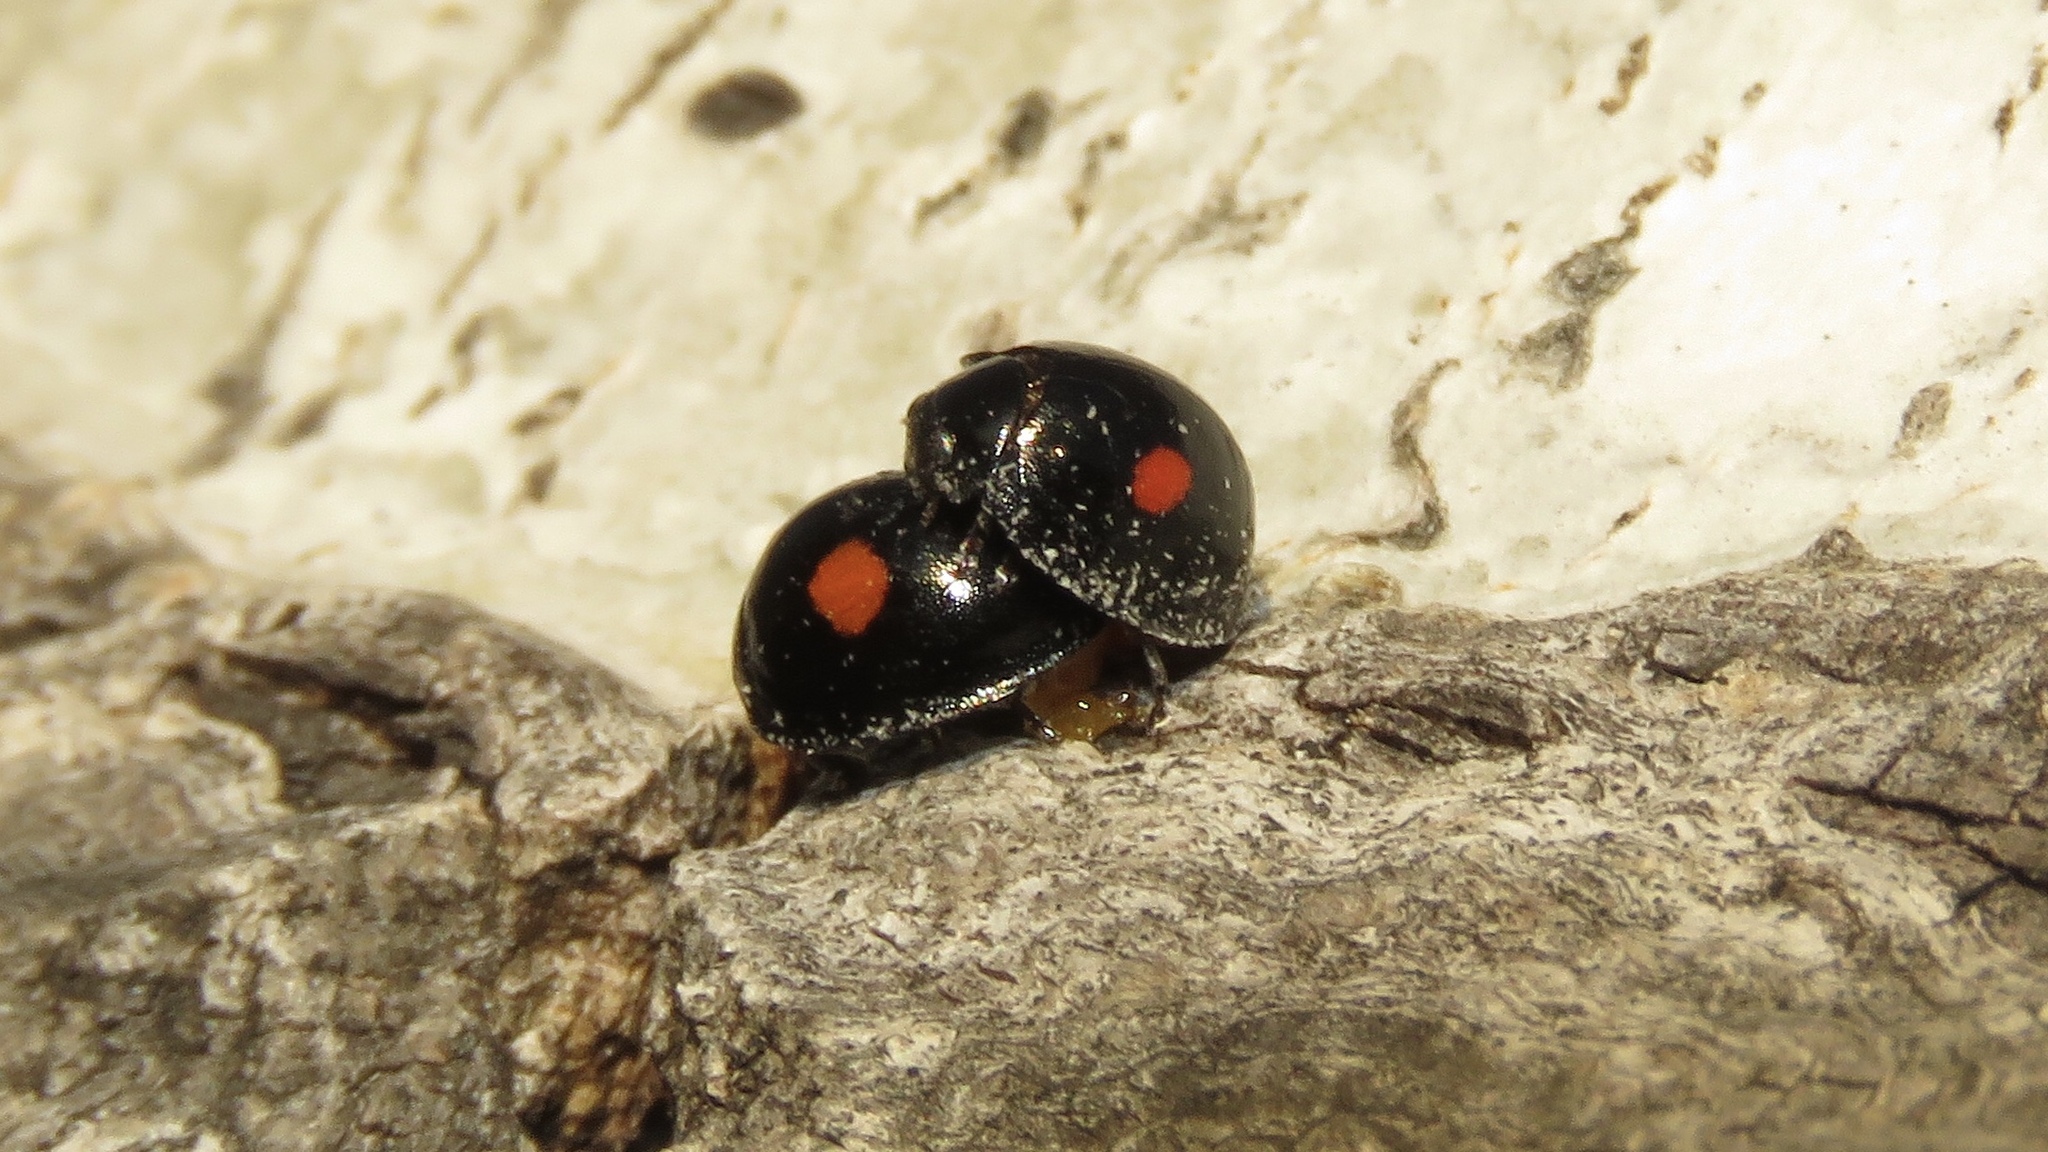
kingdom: Animalia
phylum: Arthropoda
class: Insecta
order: Coleoptera
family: Coccinellidae
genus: Chilocorus
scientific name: Chilocorus stigma
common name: Twicestabbed lady beetle
